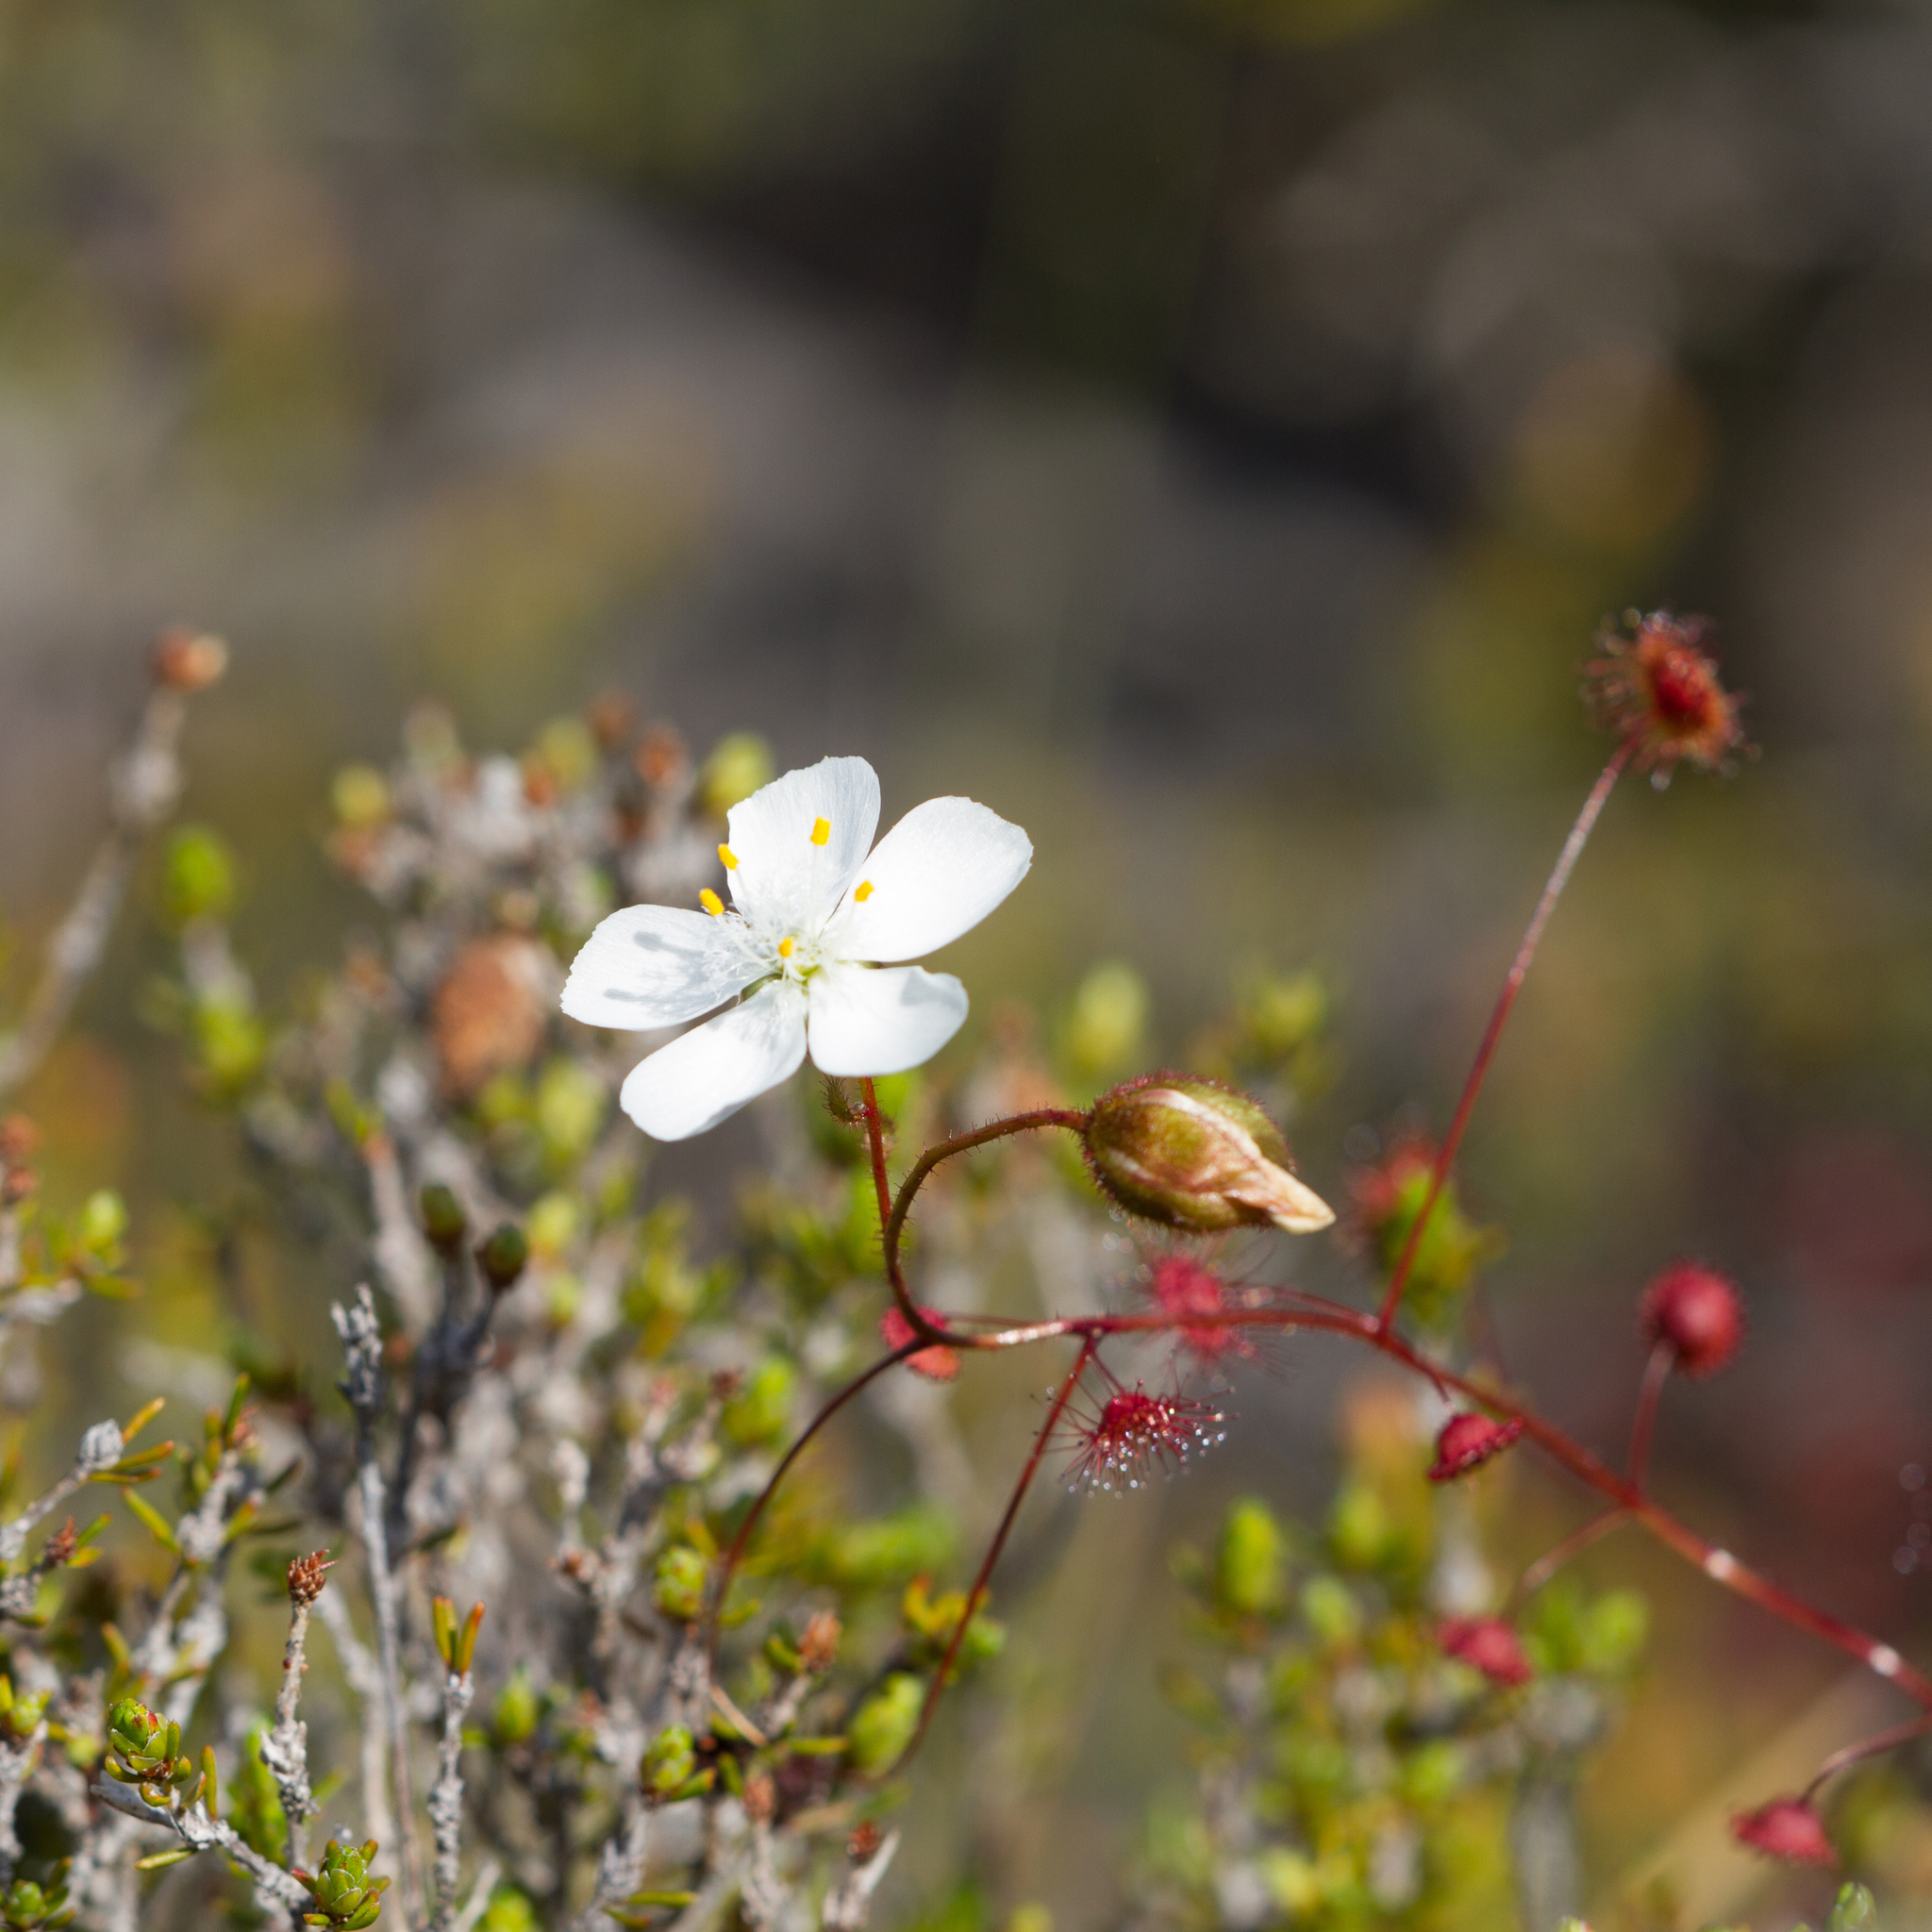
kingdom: Plantae
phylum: Tracheophyta
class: Magnoliopsida
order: Caryophyllales
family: Droseraceae
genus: Drosera
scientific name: Drosera planchonii
